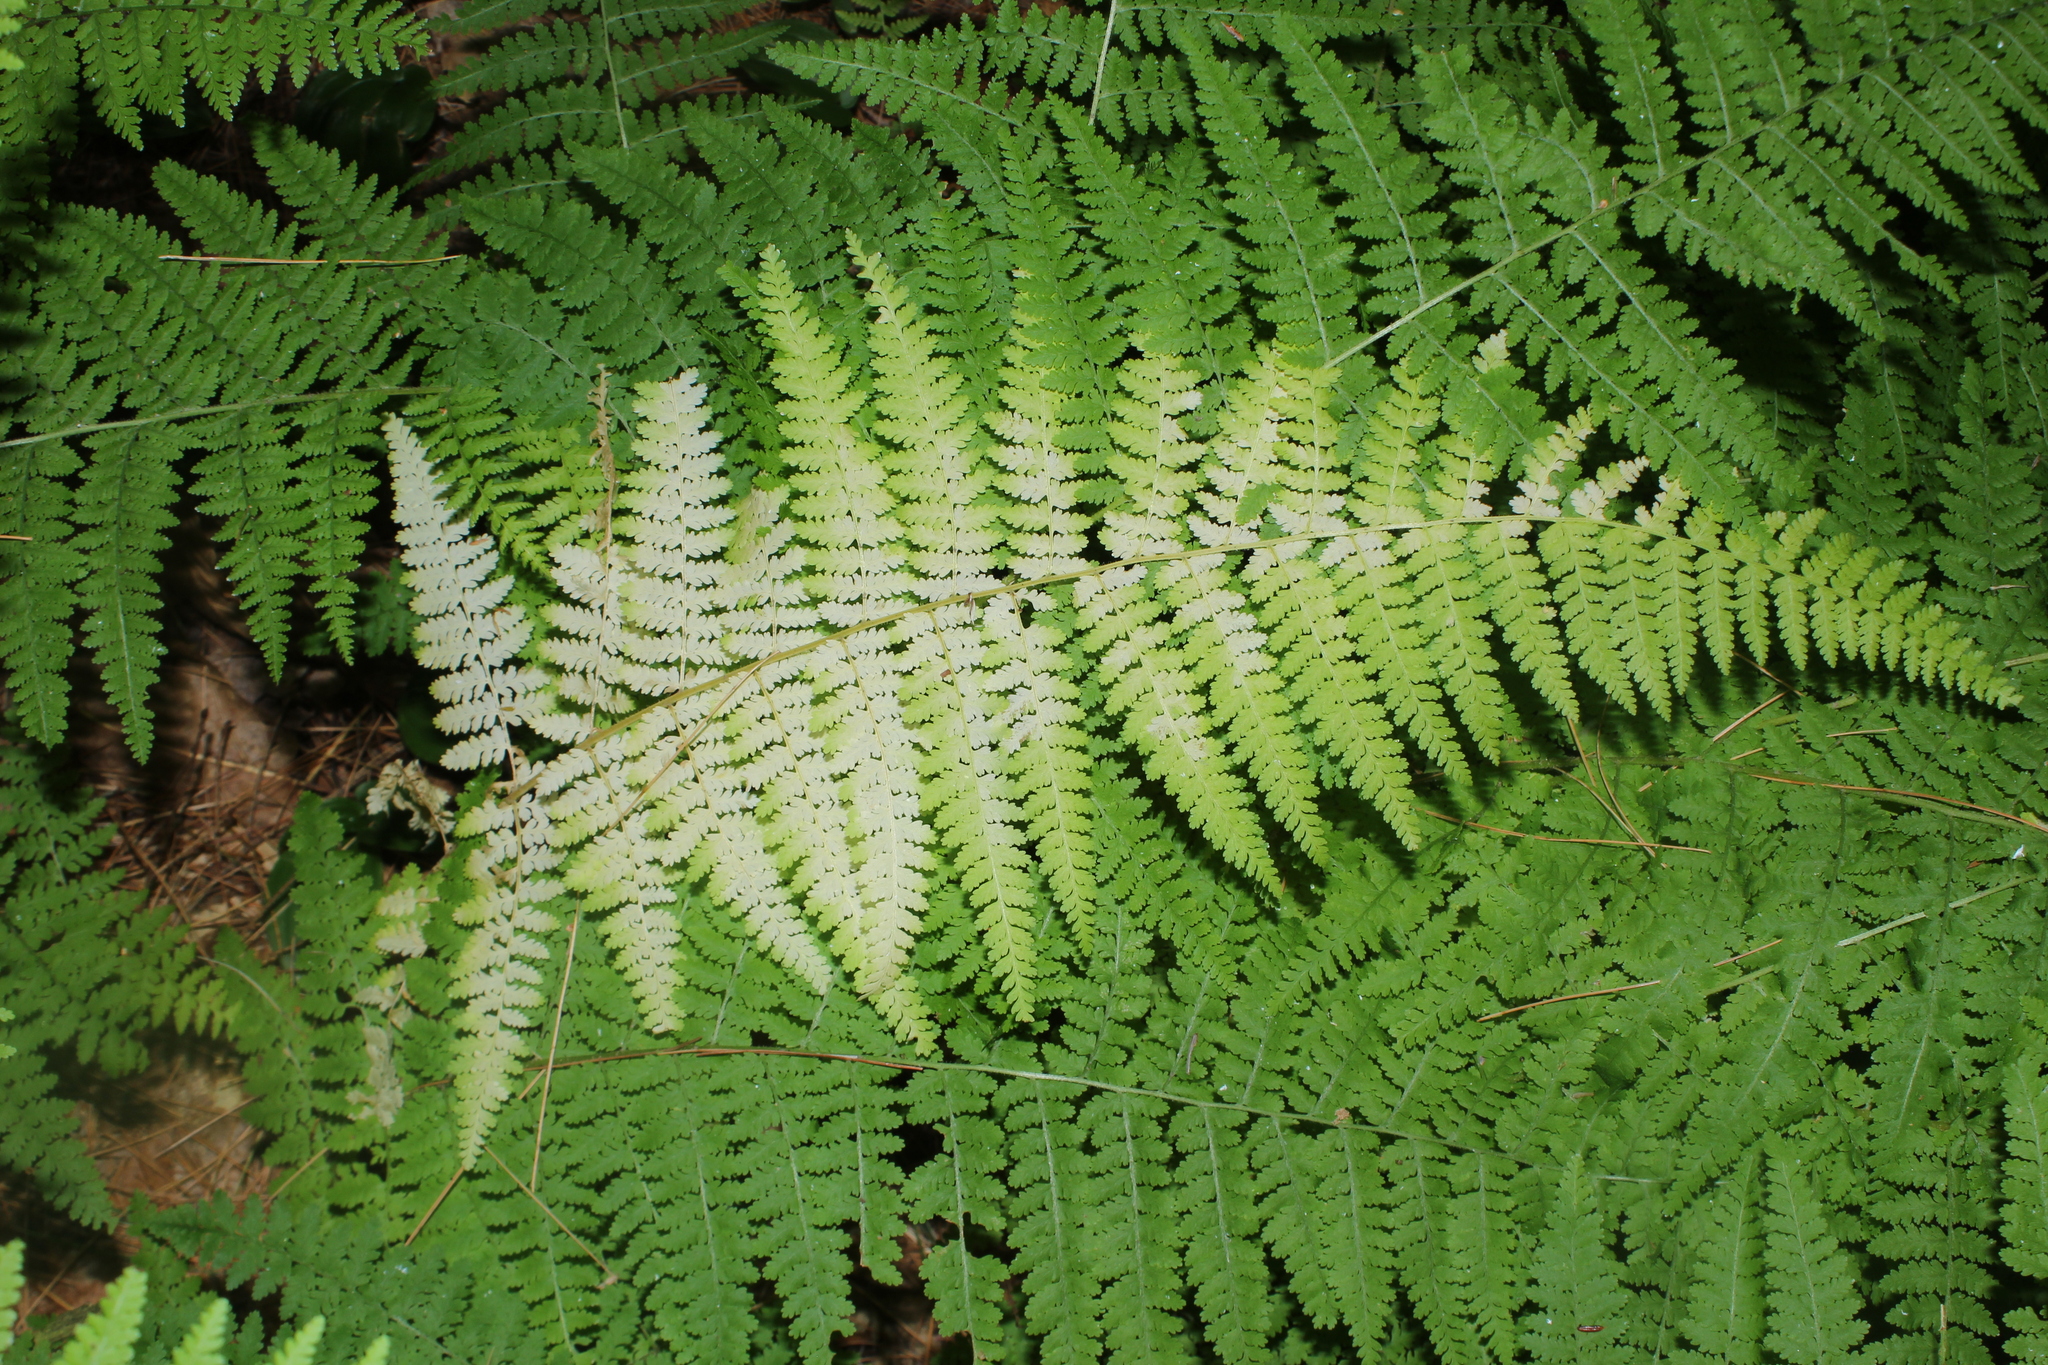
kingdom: Plantae
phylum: Tracheophyta
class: Polypodiopsida
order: Polypodiales
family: Dennstaedtiaceae
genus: Sitobolium
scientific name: Sitobolium punctilobum
